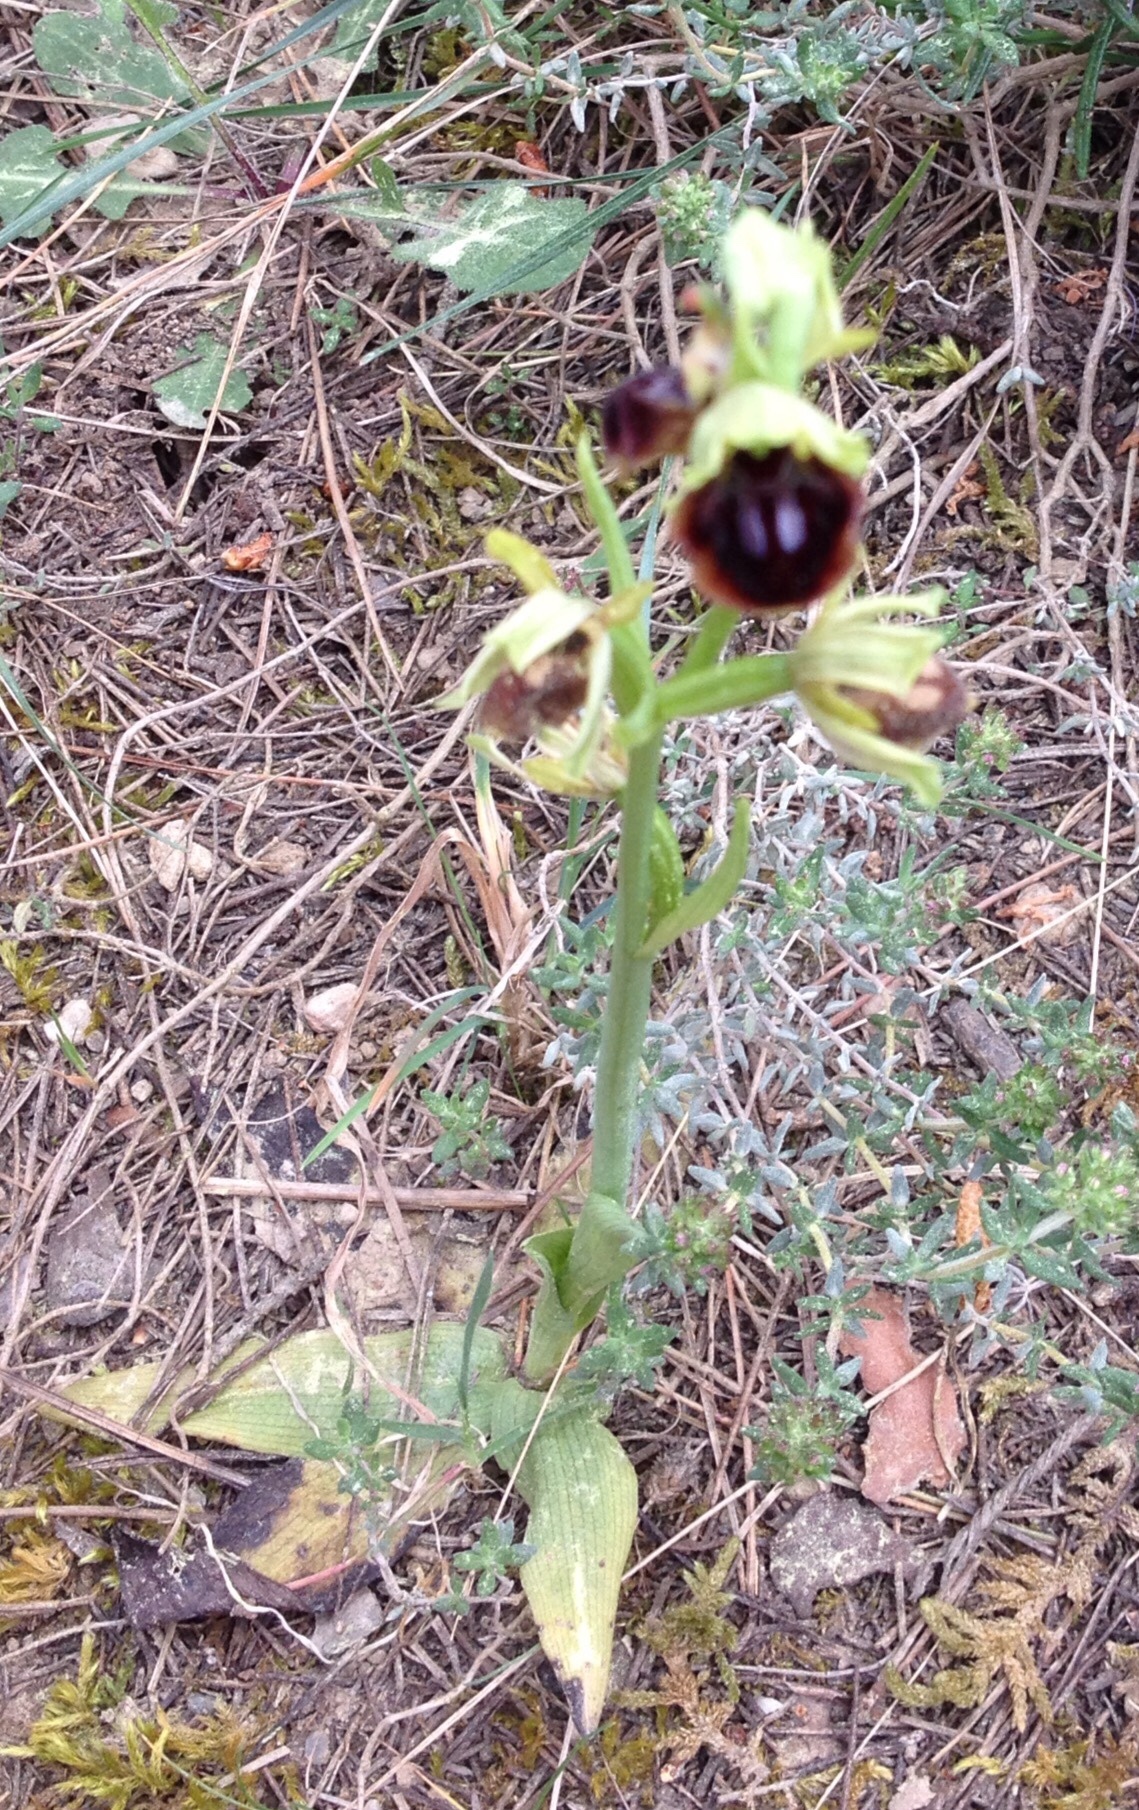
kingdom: Plantae
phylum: Tracheophyta
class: Liliopsida
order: Asparagales
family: Orchidaceae
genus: Ophrys
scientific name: Ophrys sphegodes
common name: Early spider-orchid
